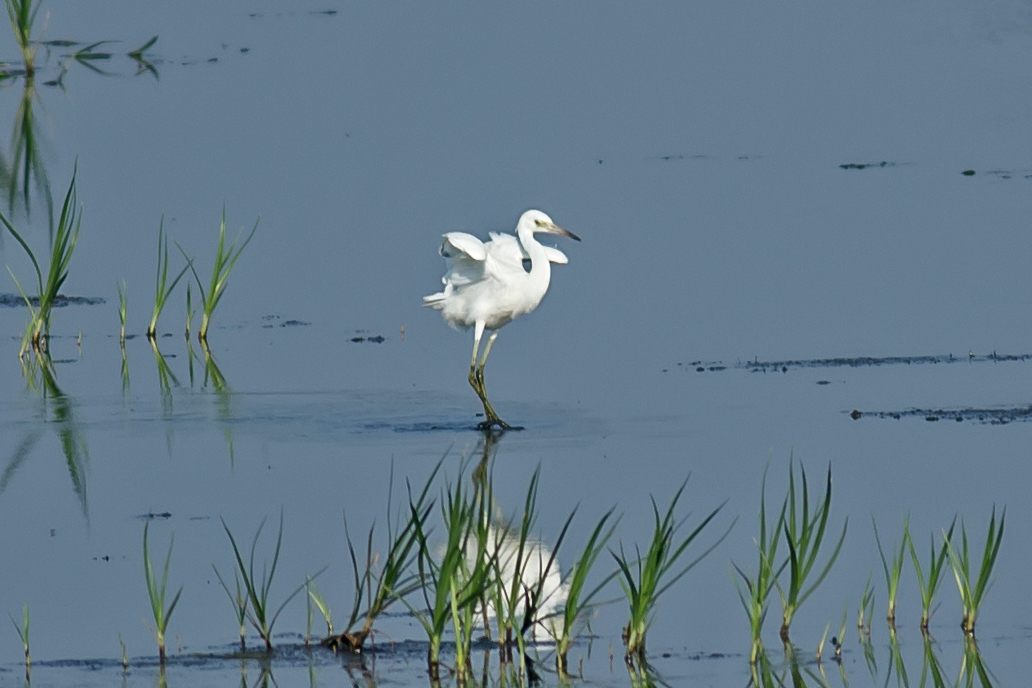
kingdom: Animalia
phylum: Chordata
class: Aves
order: Pelecaniformes
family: Ardeidae
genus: Egretta
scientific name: Egretta caerulea
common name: Little blue heron
